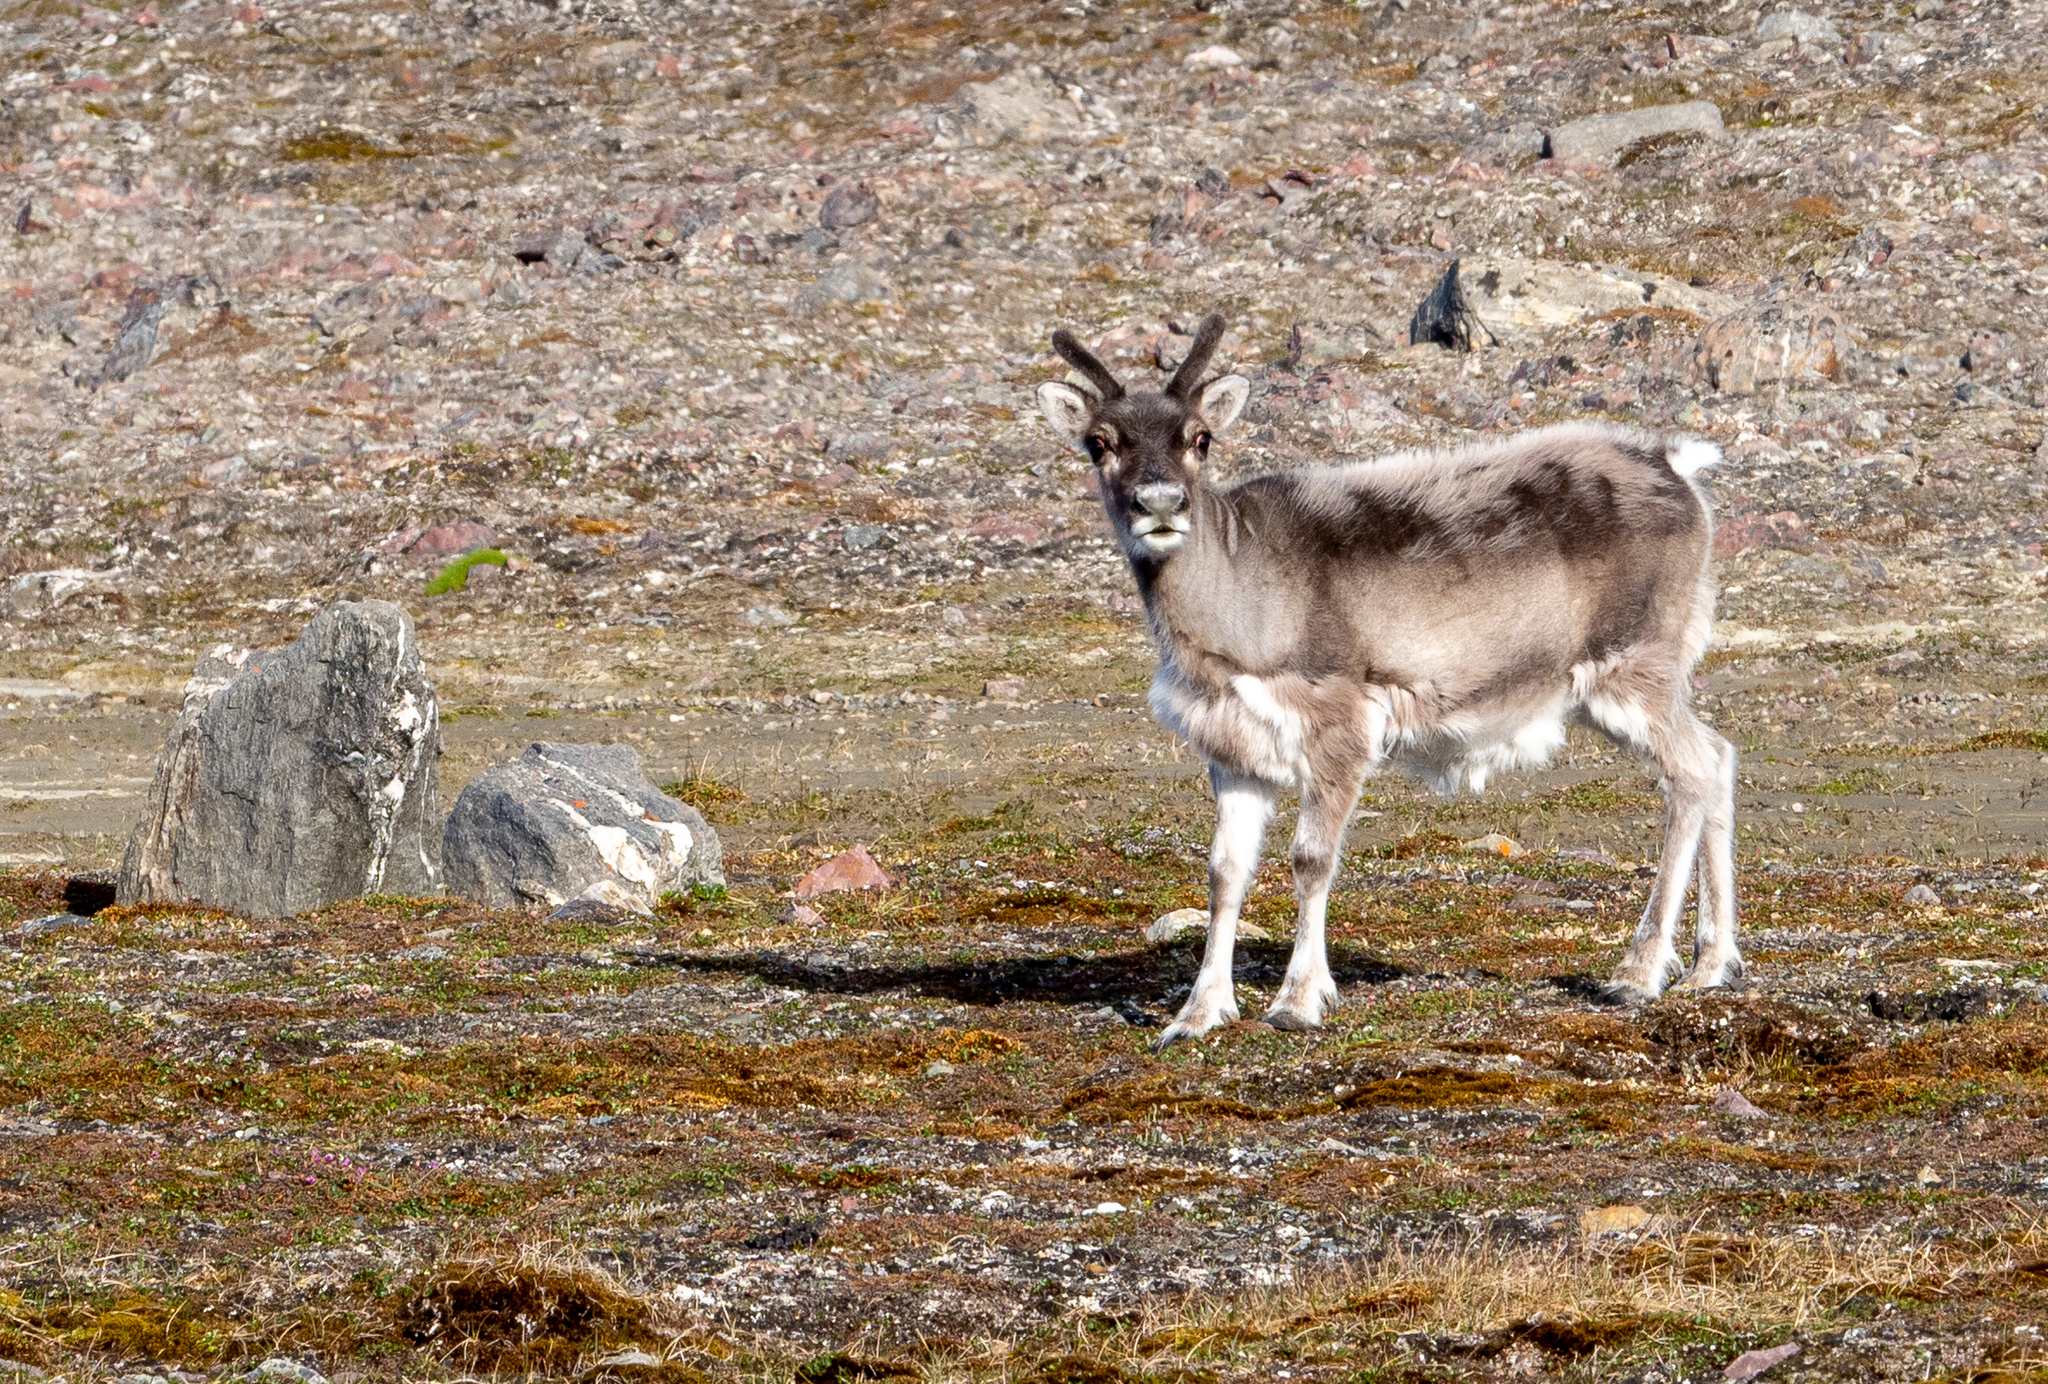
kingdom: Animalia
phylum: Chordata
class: Mammalia
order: Artiodactyla
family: Cervidae
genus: Rangifer
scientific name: Rangifer tarandus
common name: Reindeer
